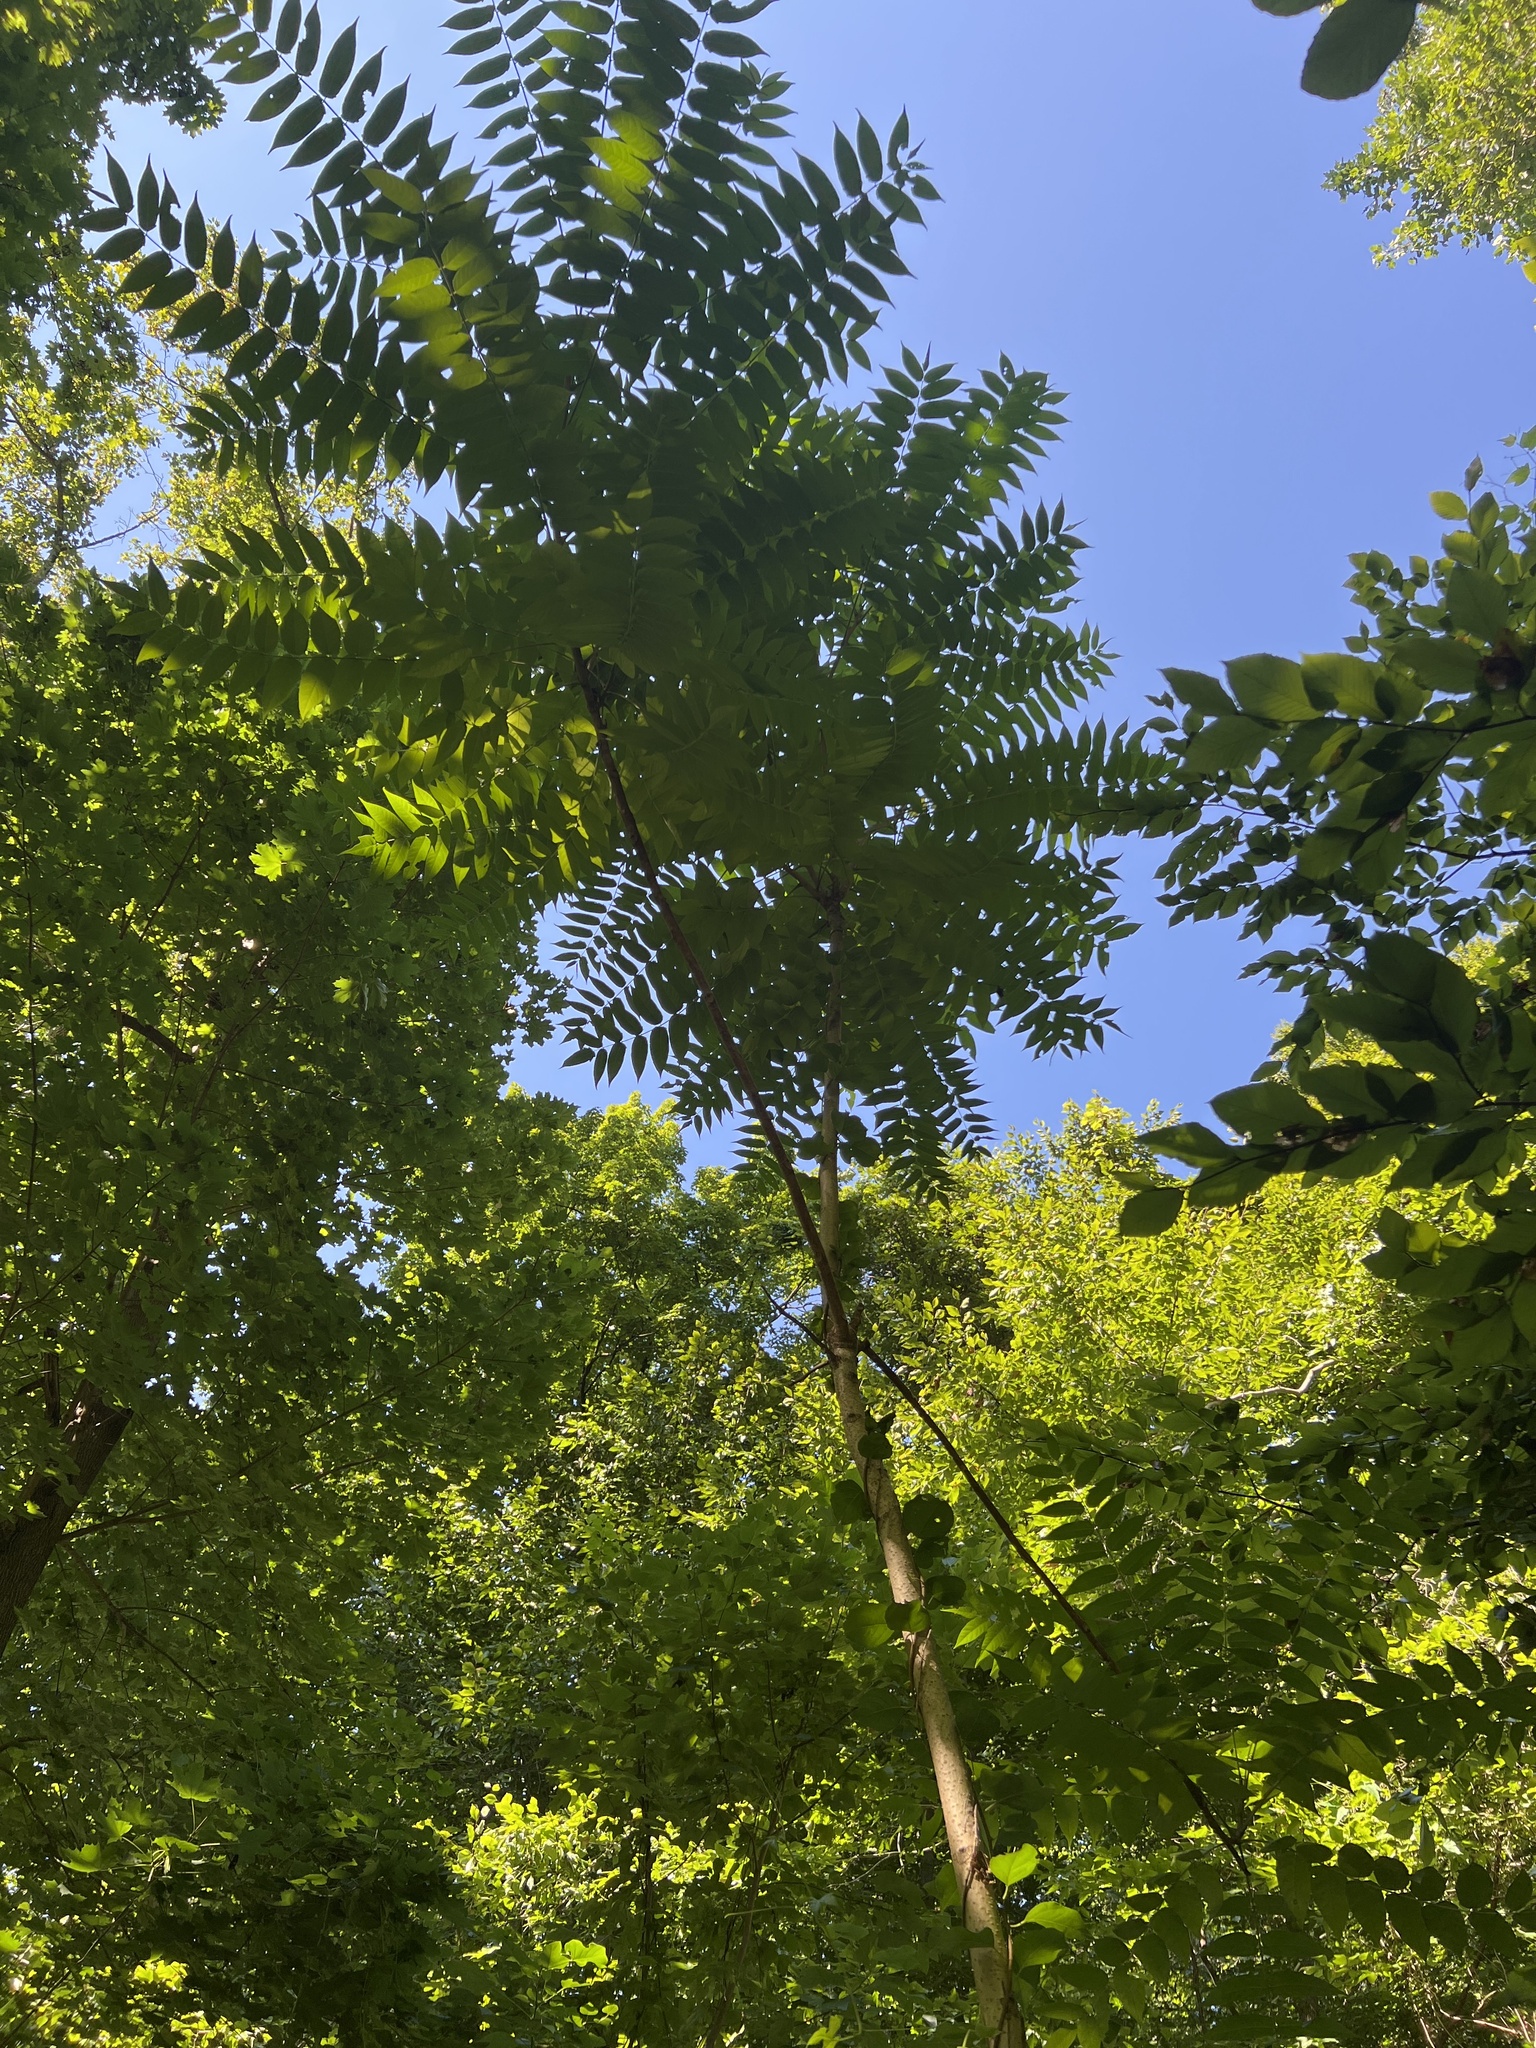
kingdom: Plantae
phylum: Tracheophyta
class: Magnoliopsida
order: Sapindales
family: Simaroubaceae
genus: Ailanthus
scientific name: Ailanthus altissima
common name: Tree-of-heaven
